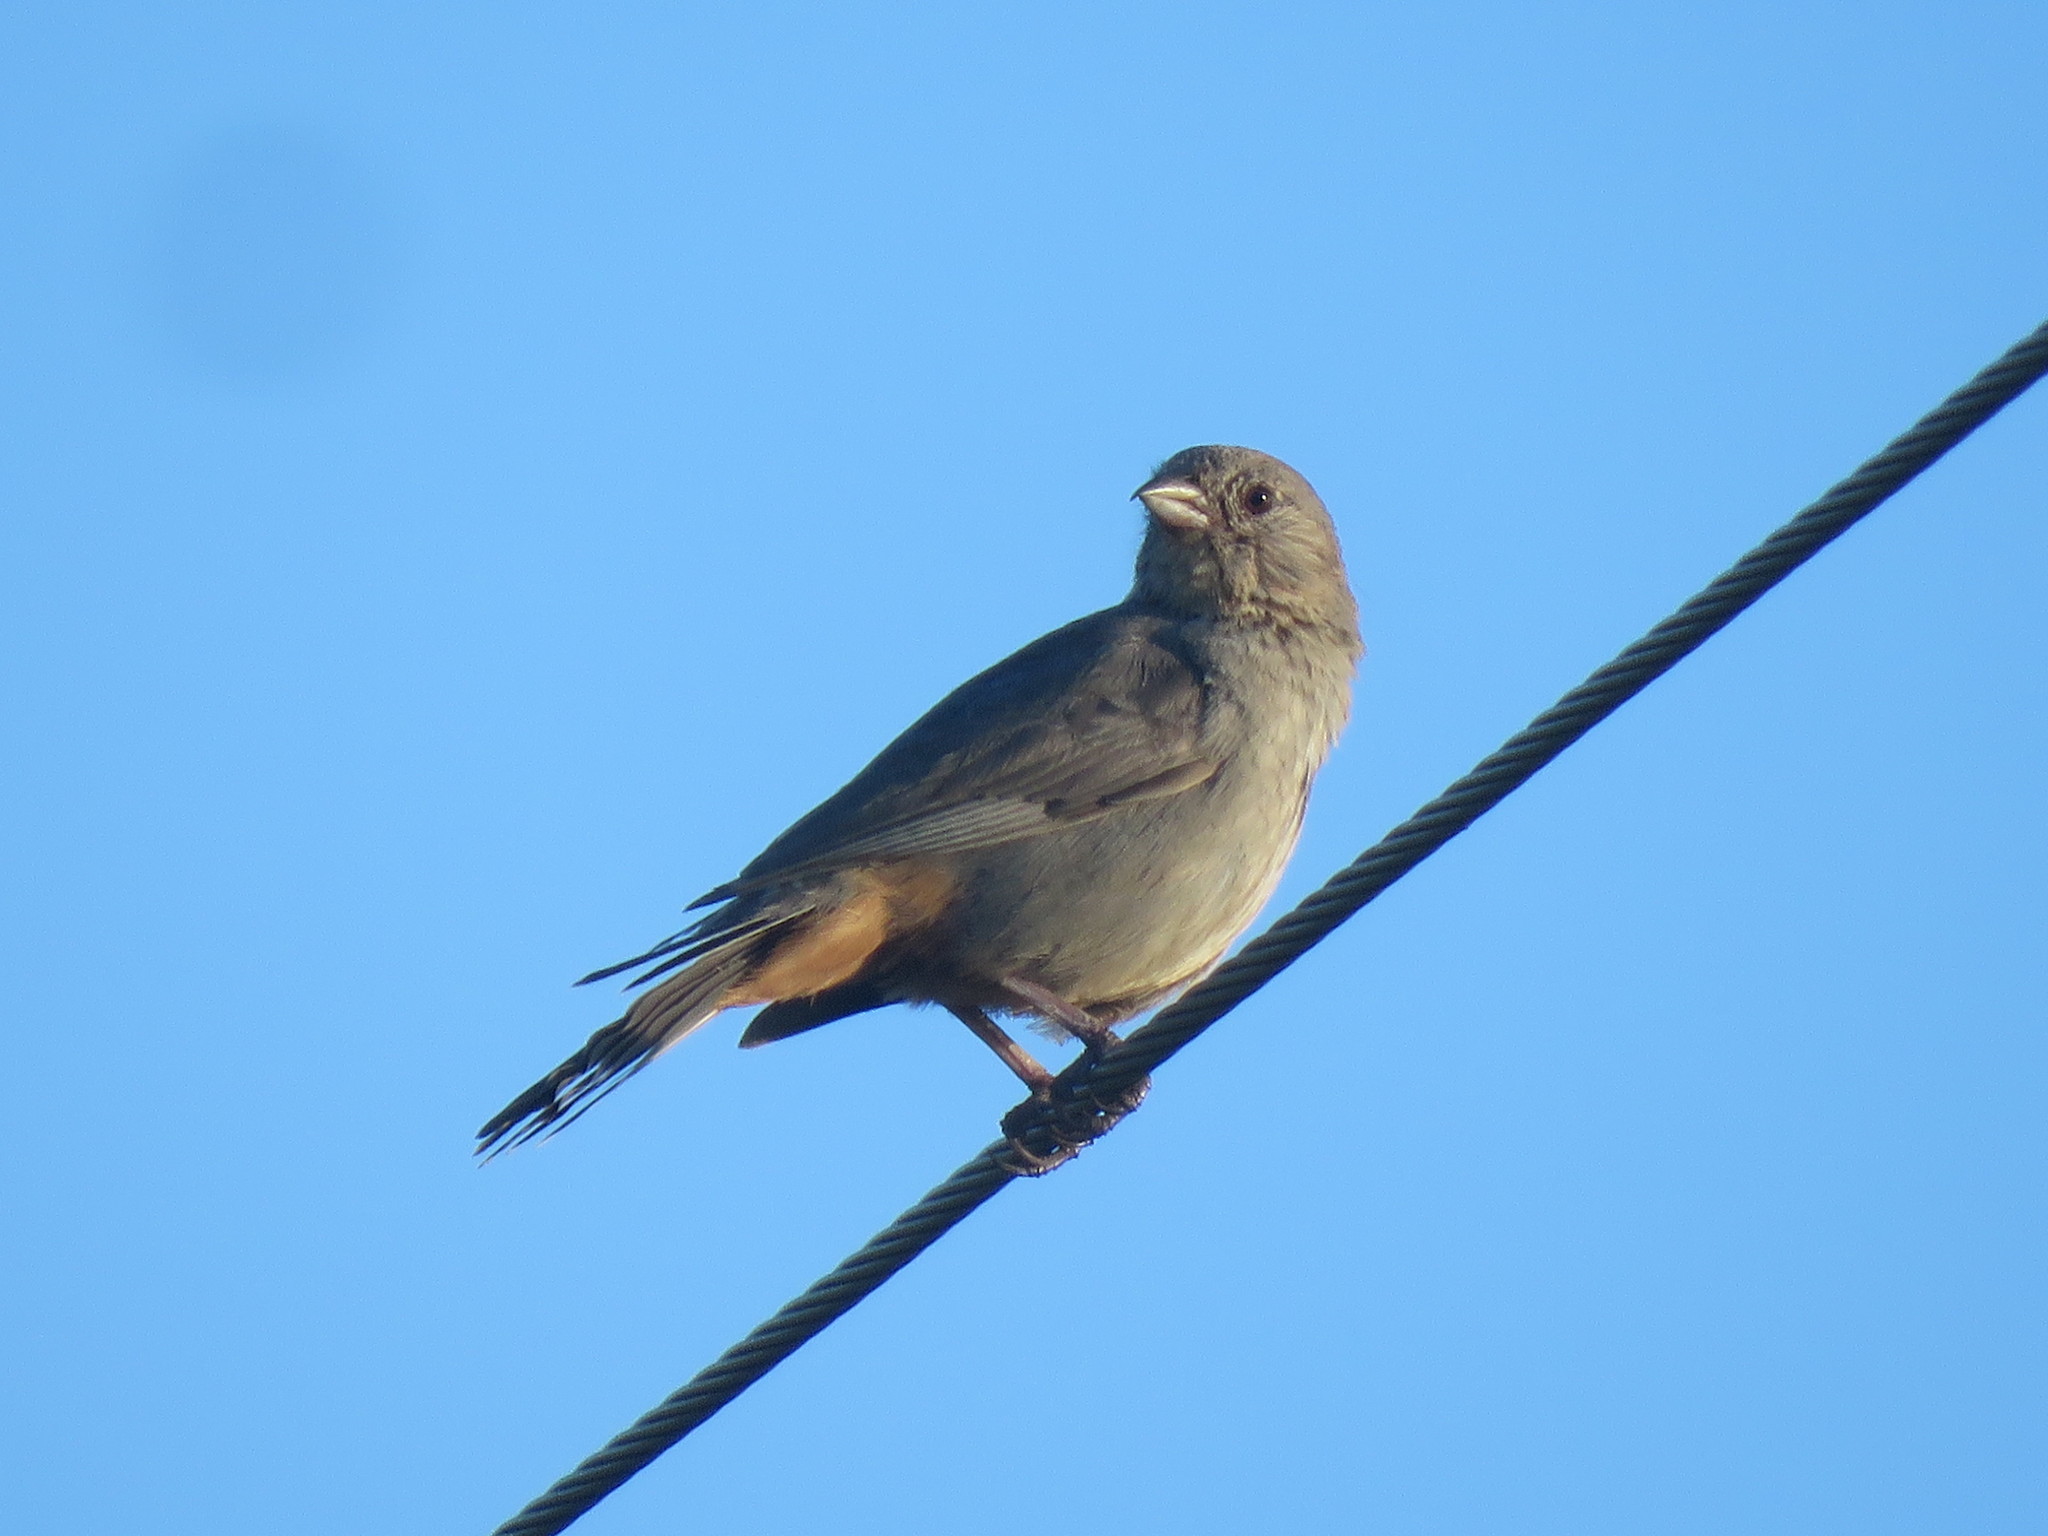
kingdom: Animalia
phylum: Chordata
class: Aves
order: Passeriformes
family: Passerellidae
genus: Melozone
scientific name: Melozone fusca
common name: Canyon towhee
